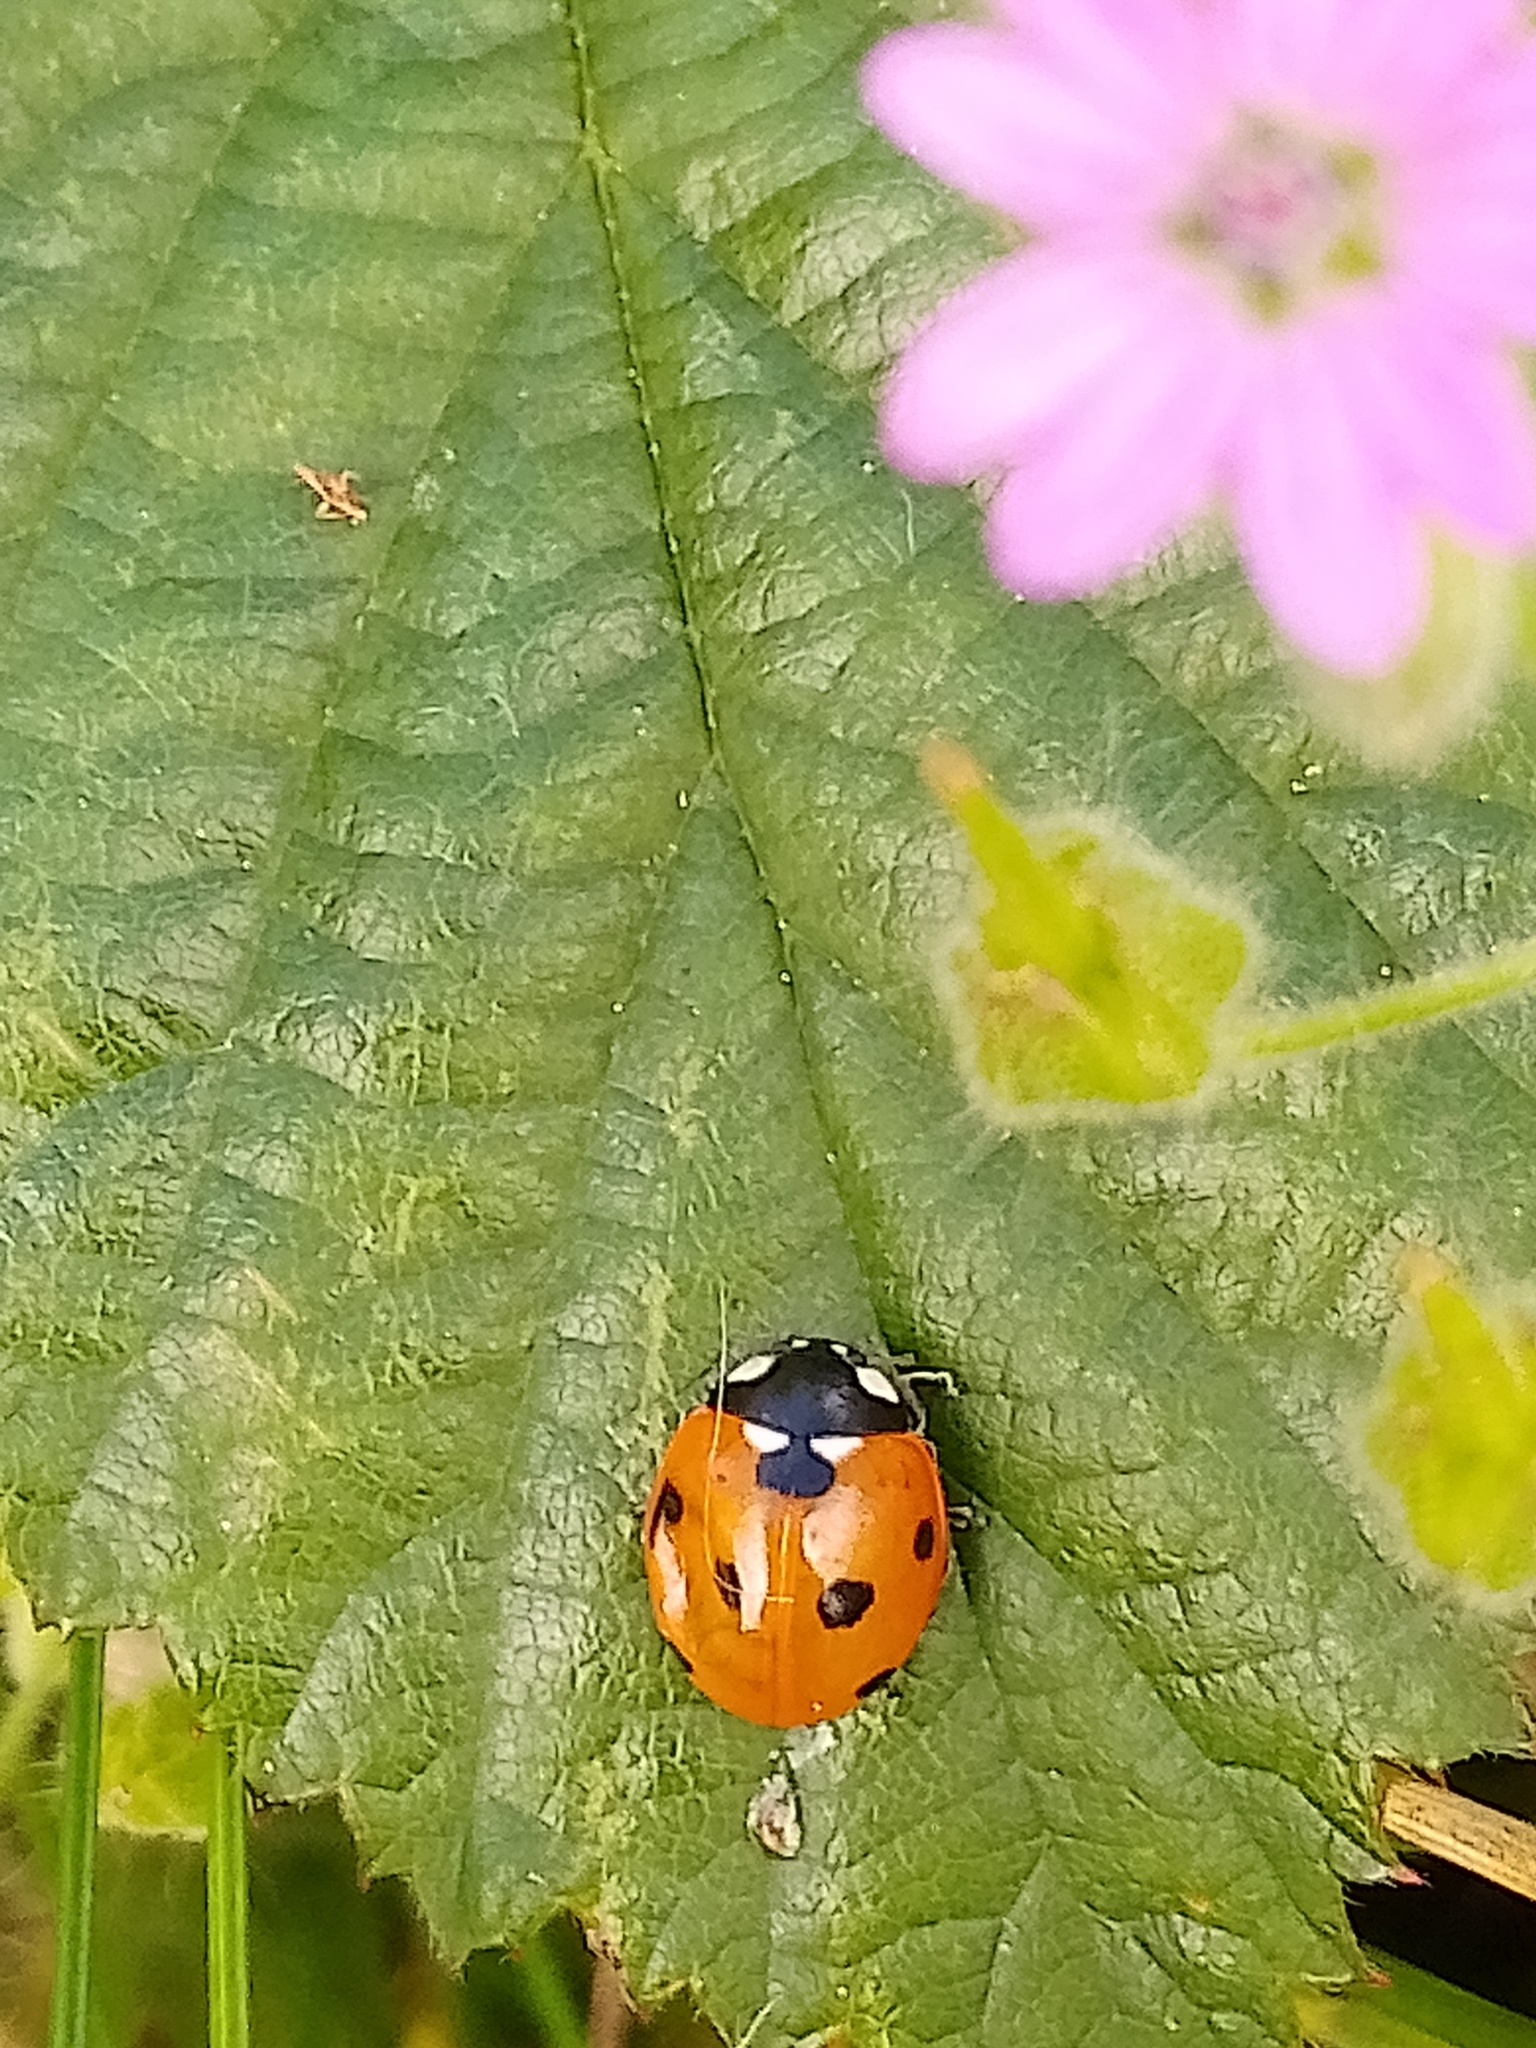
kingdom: Animalia
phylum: Arthropoda
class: Insecta
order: Coleoptera
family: Coccinellidae
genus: Coccinella
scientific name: Coccinella septempunctata
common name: Sevenspotted lady beetle
